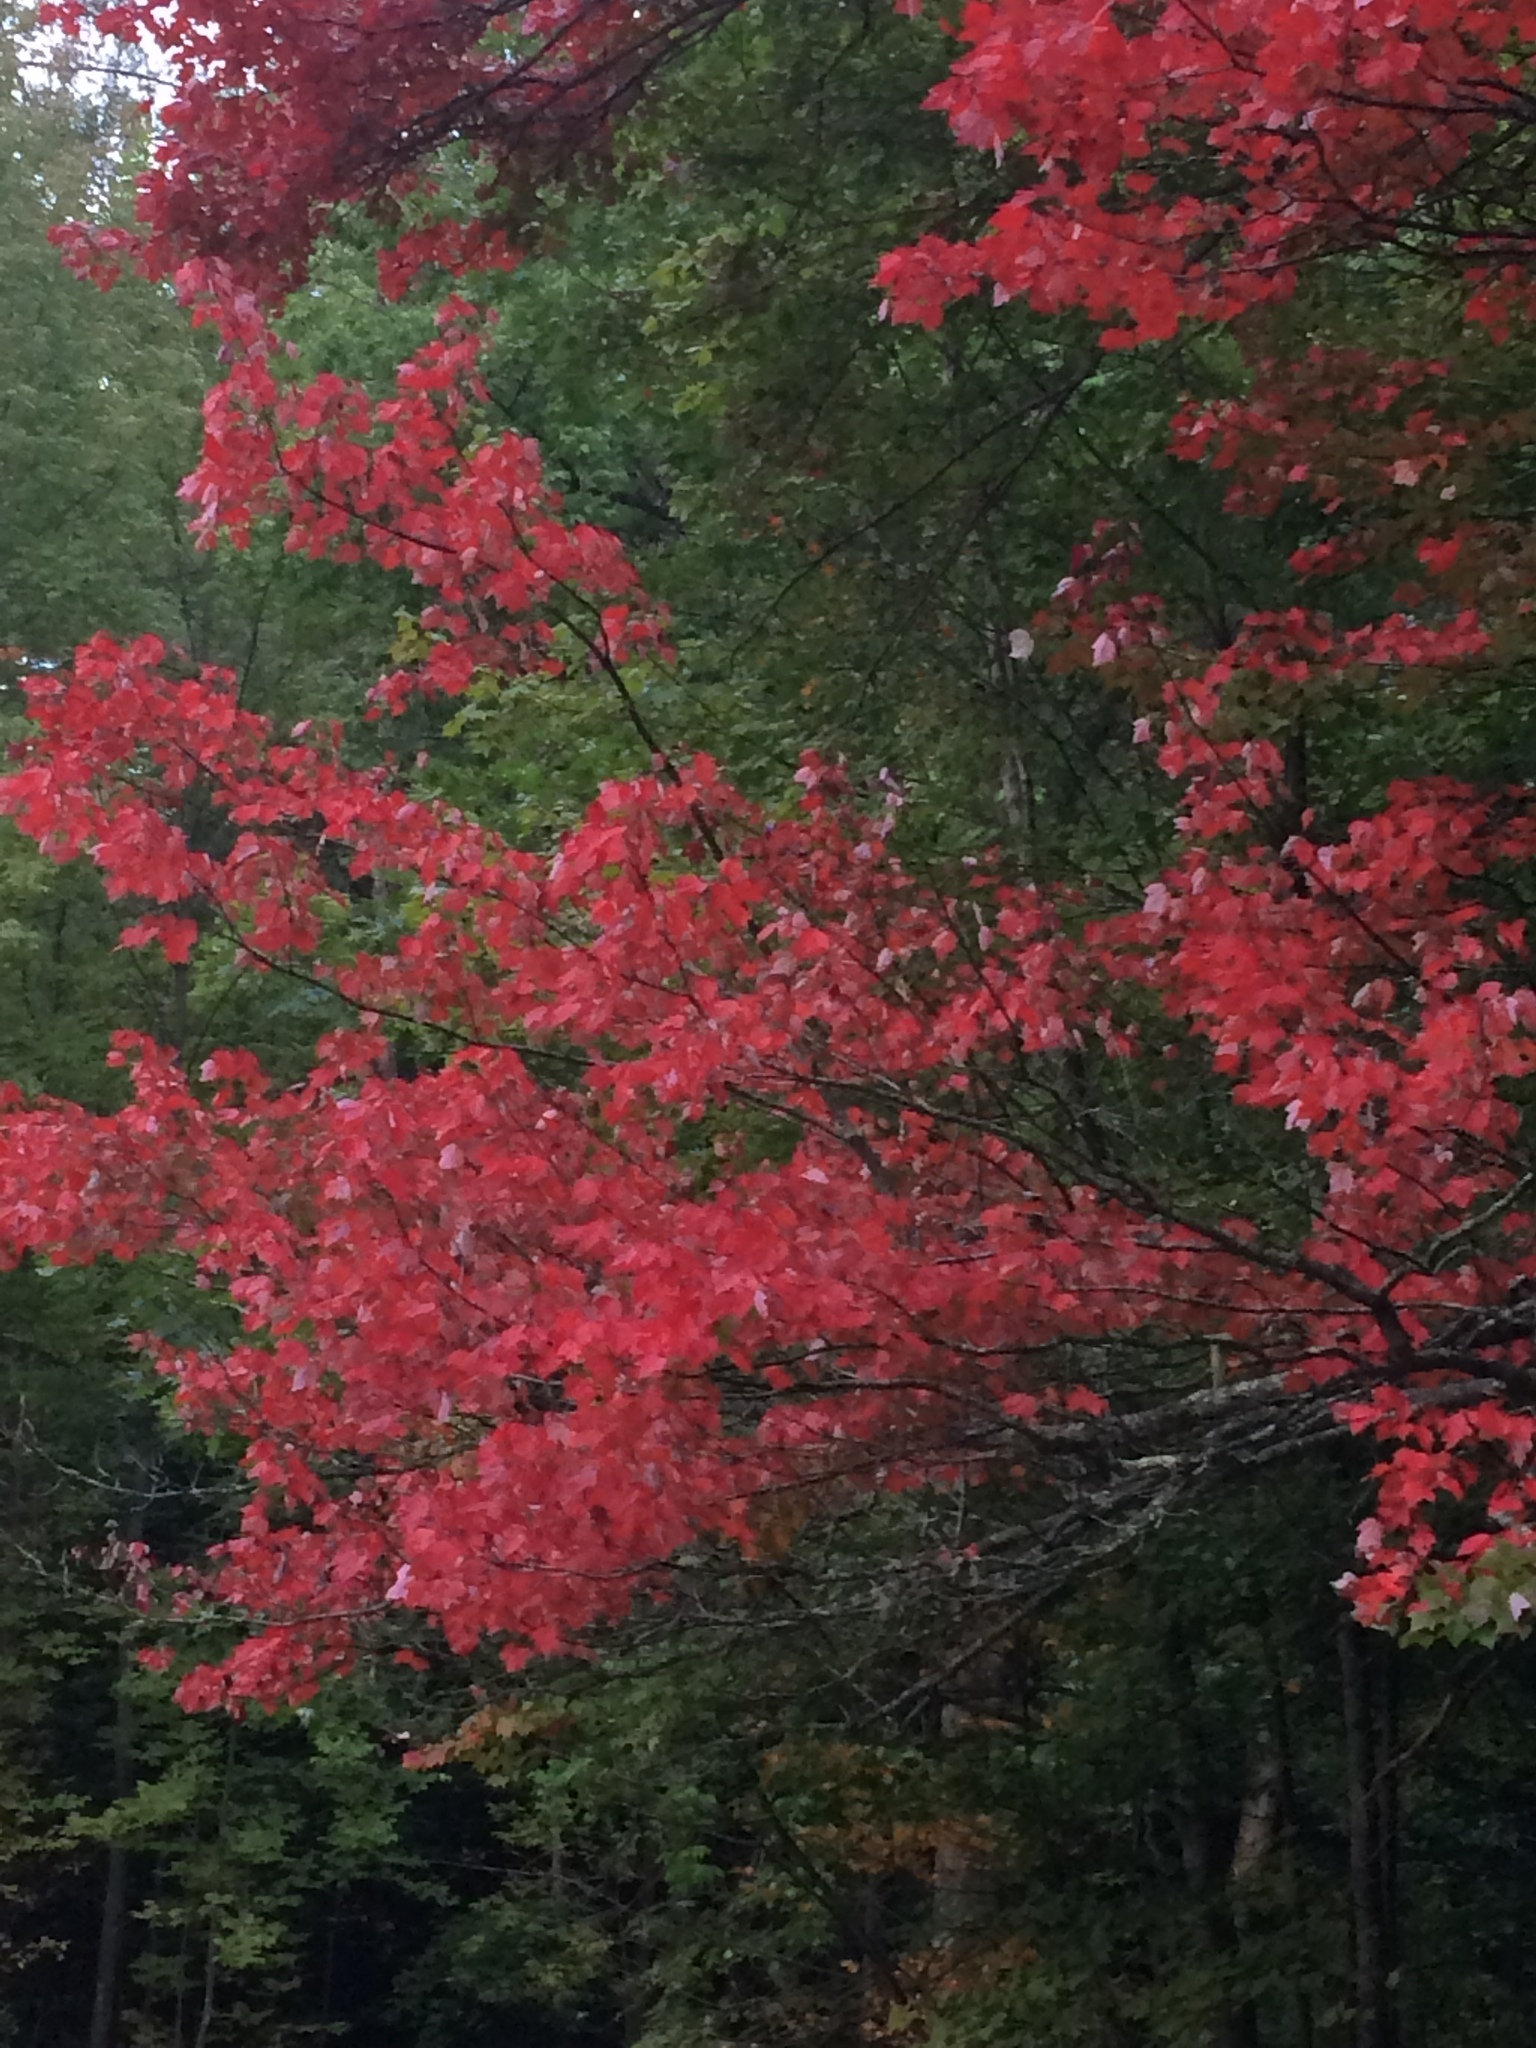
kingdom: Plantae
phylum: Tracheophyta
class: Magnoliopsida
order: Sapindales
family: Sapindaceae
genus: Acer
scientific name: Acer rubrum
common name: Red maple
